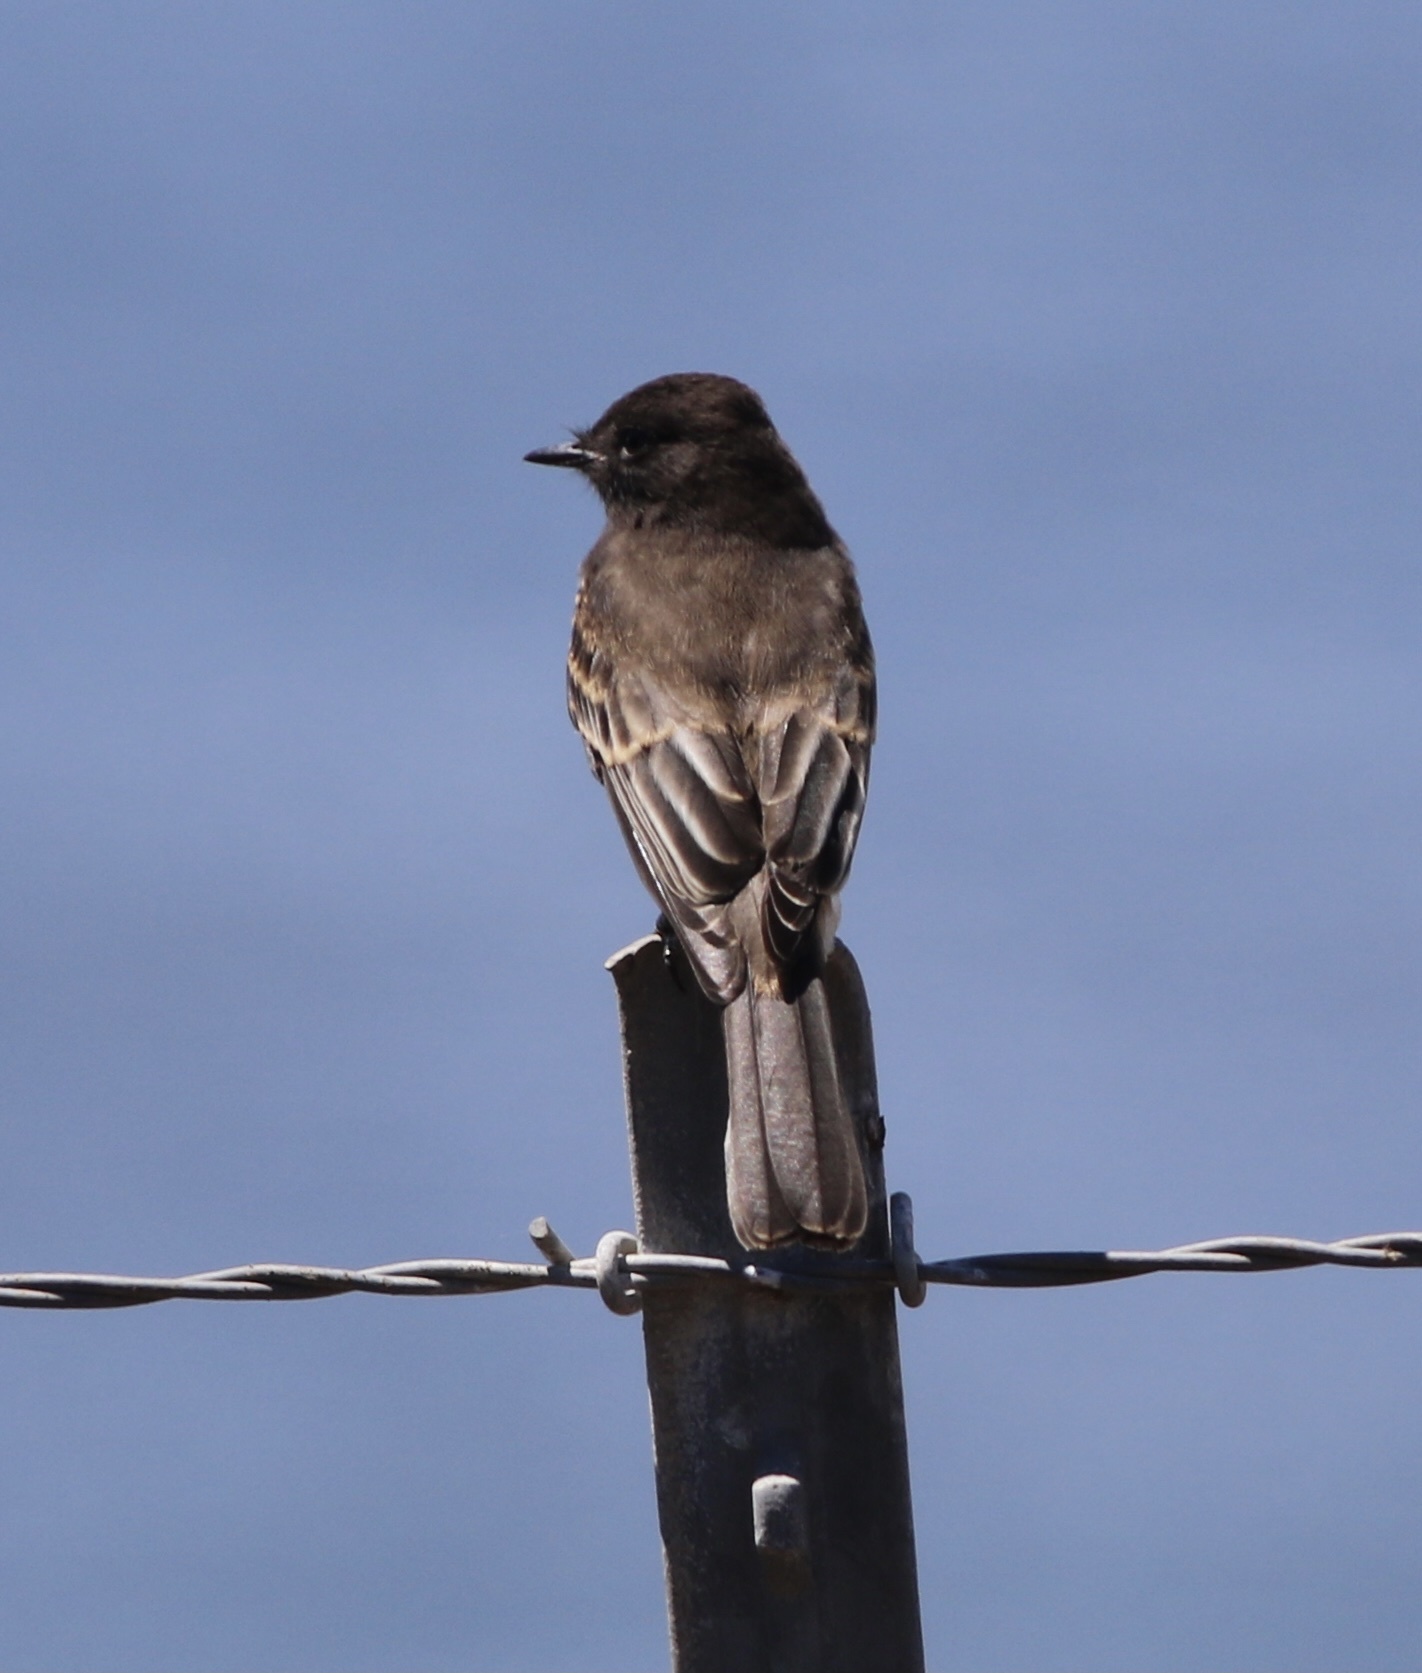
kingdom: Animalia
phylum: Chordata
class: Aves
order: Passeriformes
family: Tyrannidae
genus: Sayornis
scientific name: Sayornis nigricans
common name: Black phoebe
